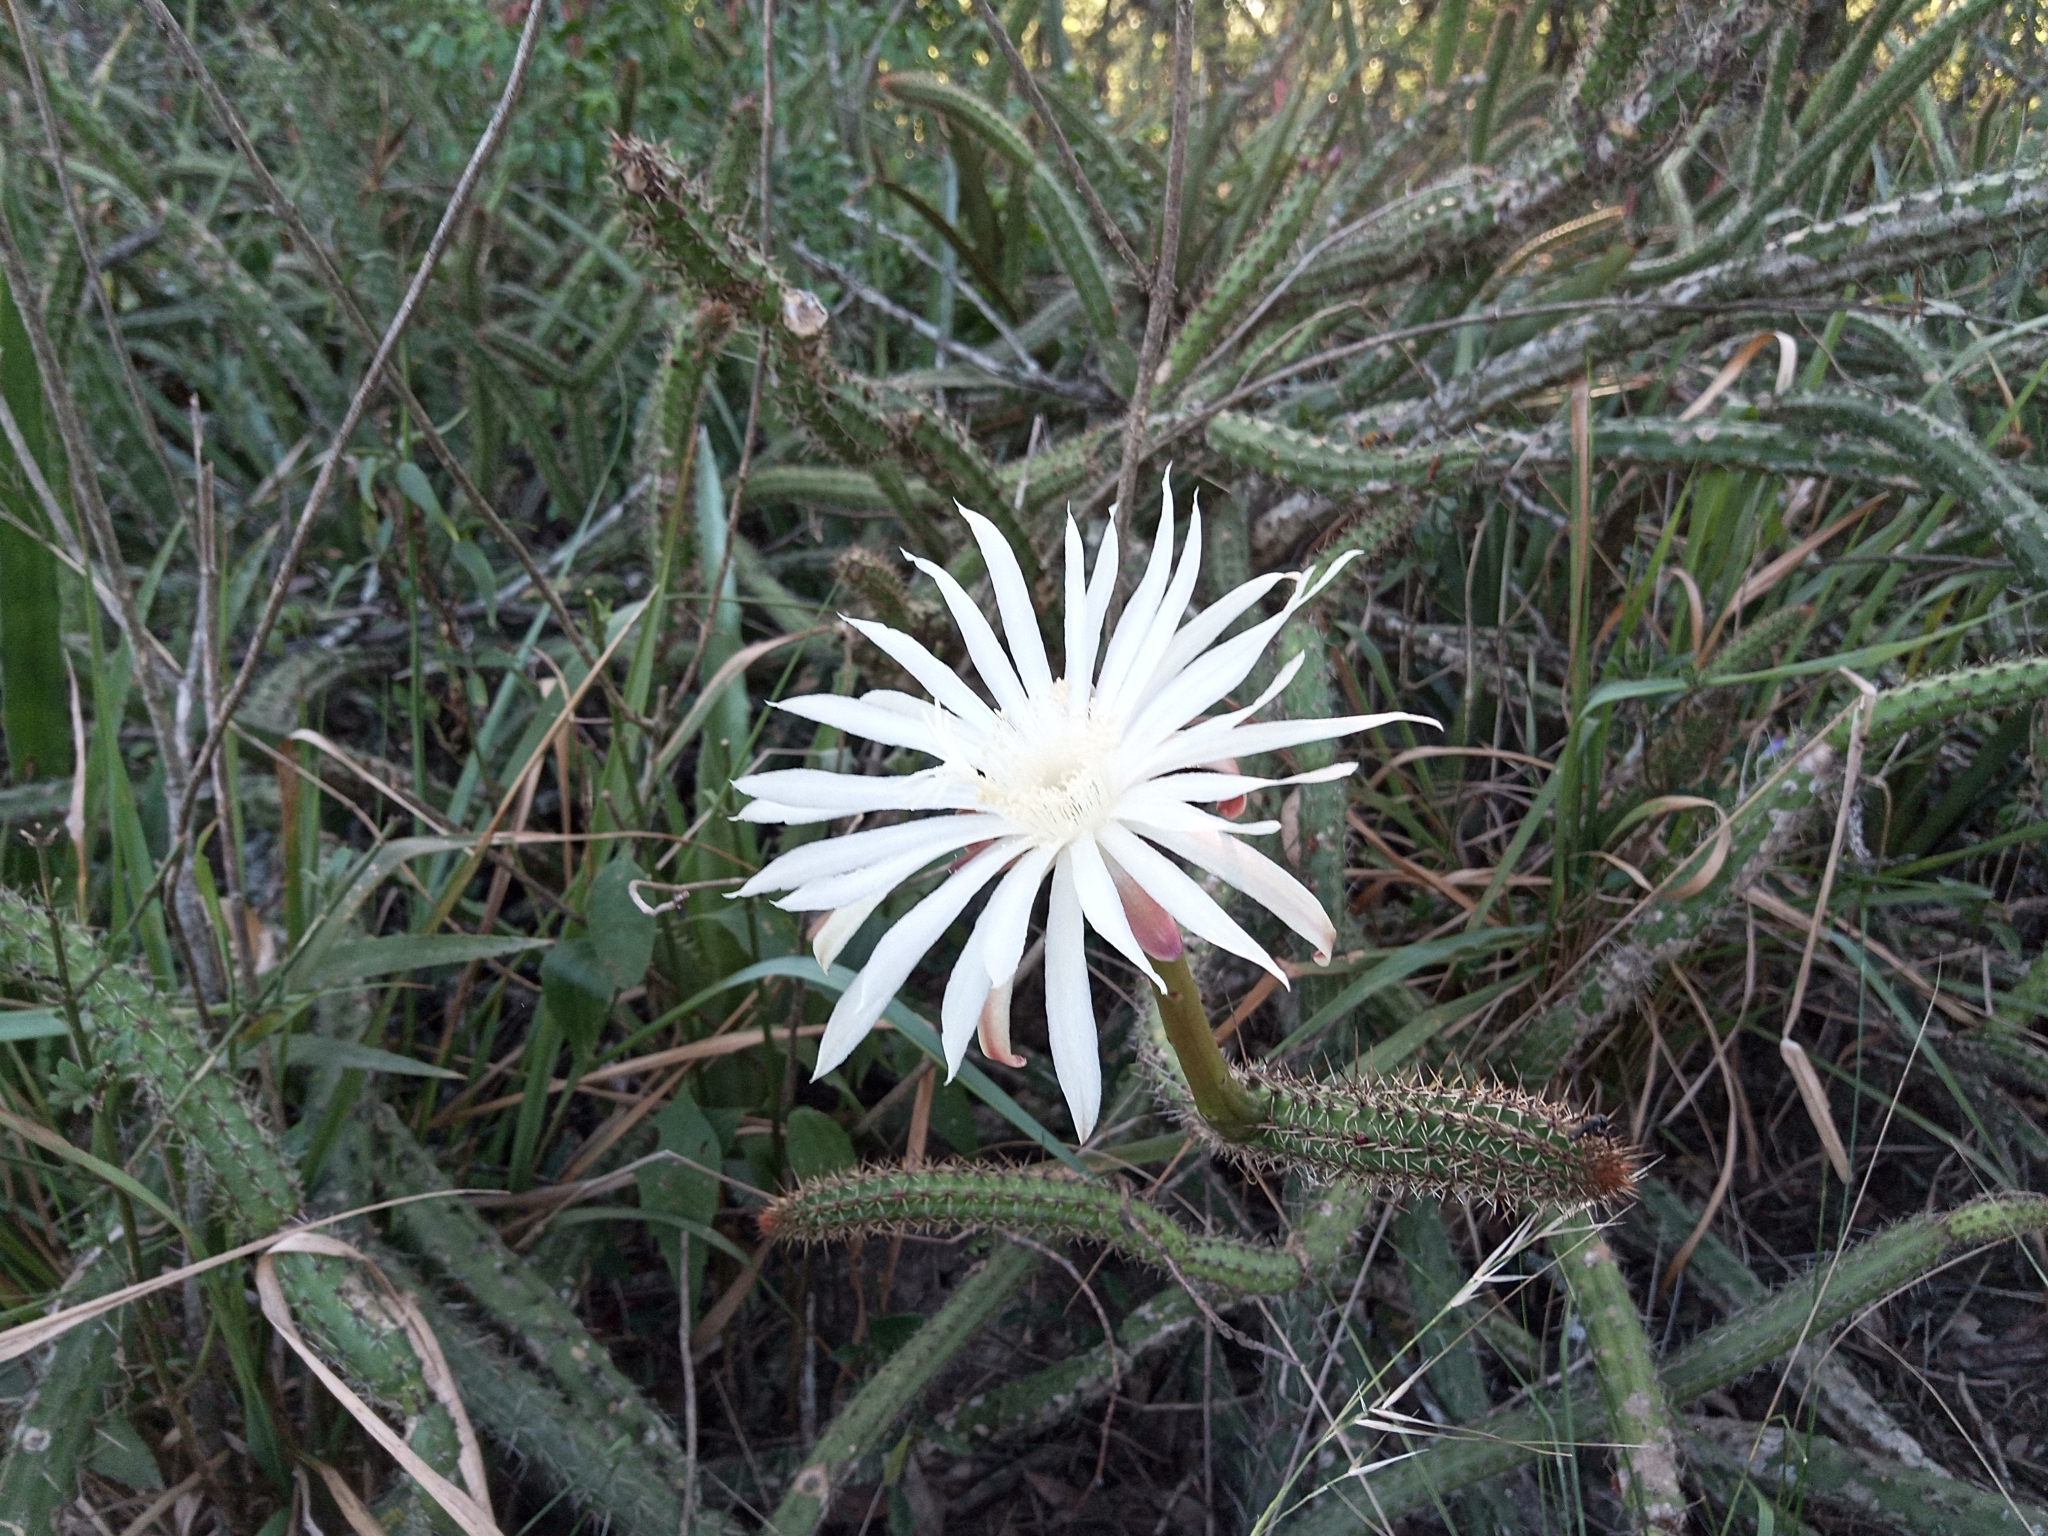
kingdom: Plantae
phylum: Tracheophyta
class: Magnoliopsida
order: Caryophyllales
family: Cactaceae
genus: Praecereus
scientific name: Praecereus euchlorus
